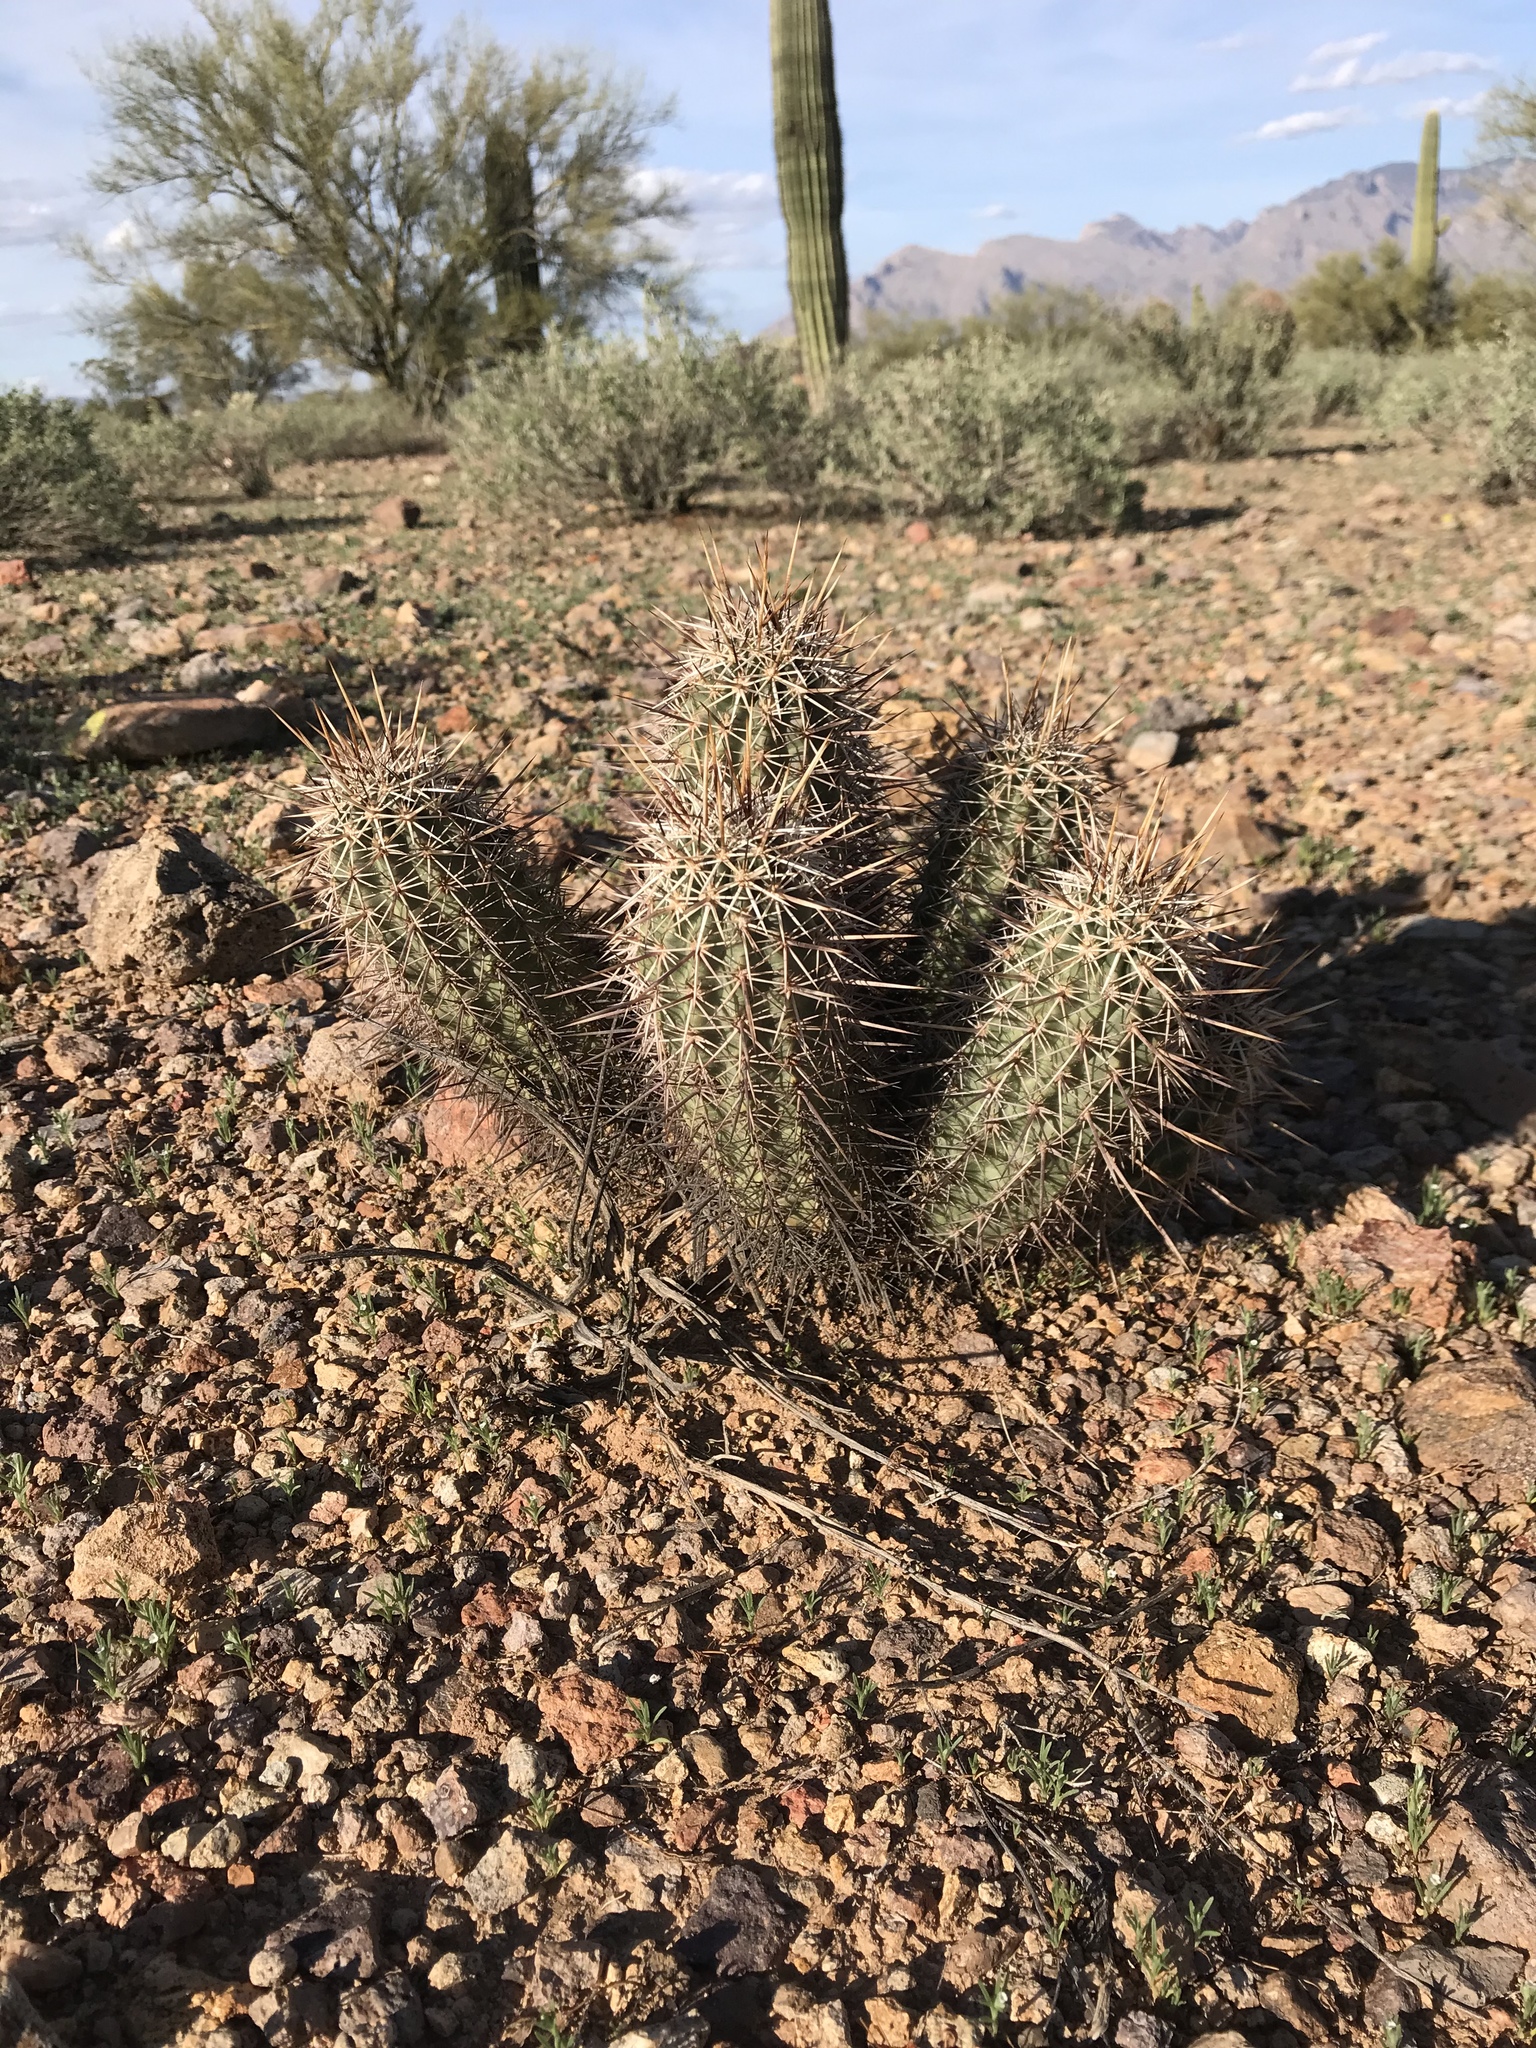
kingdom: Plantae
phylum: Tracheophyta
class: Magnoliopsida
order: Caryophyllales
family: Cactaceae
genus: Echinocereus
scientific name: Echinocereus fasciculatus
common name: Bundle hedgehog
